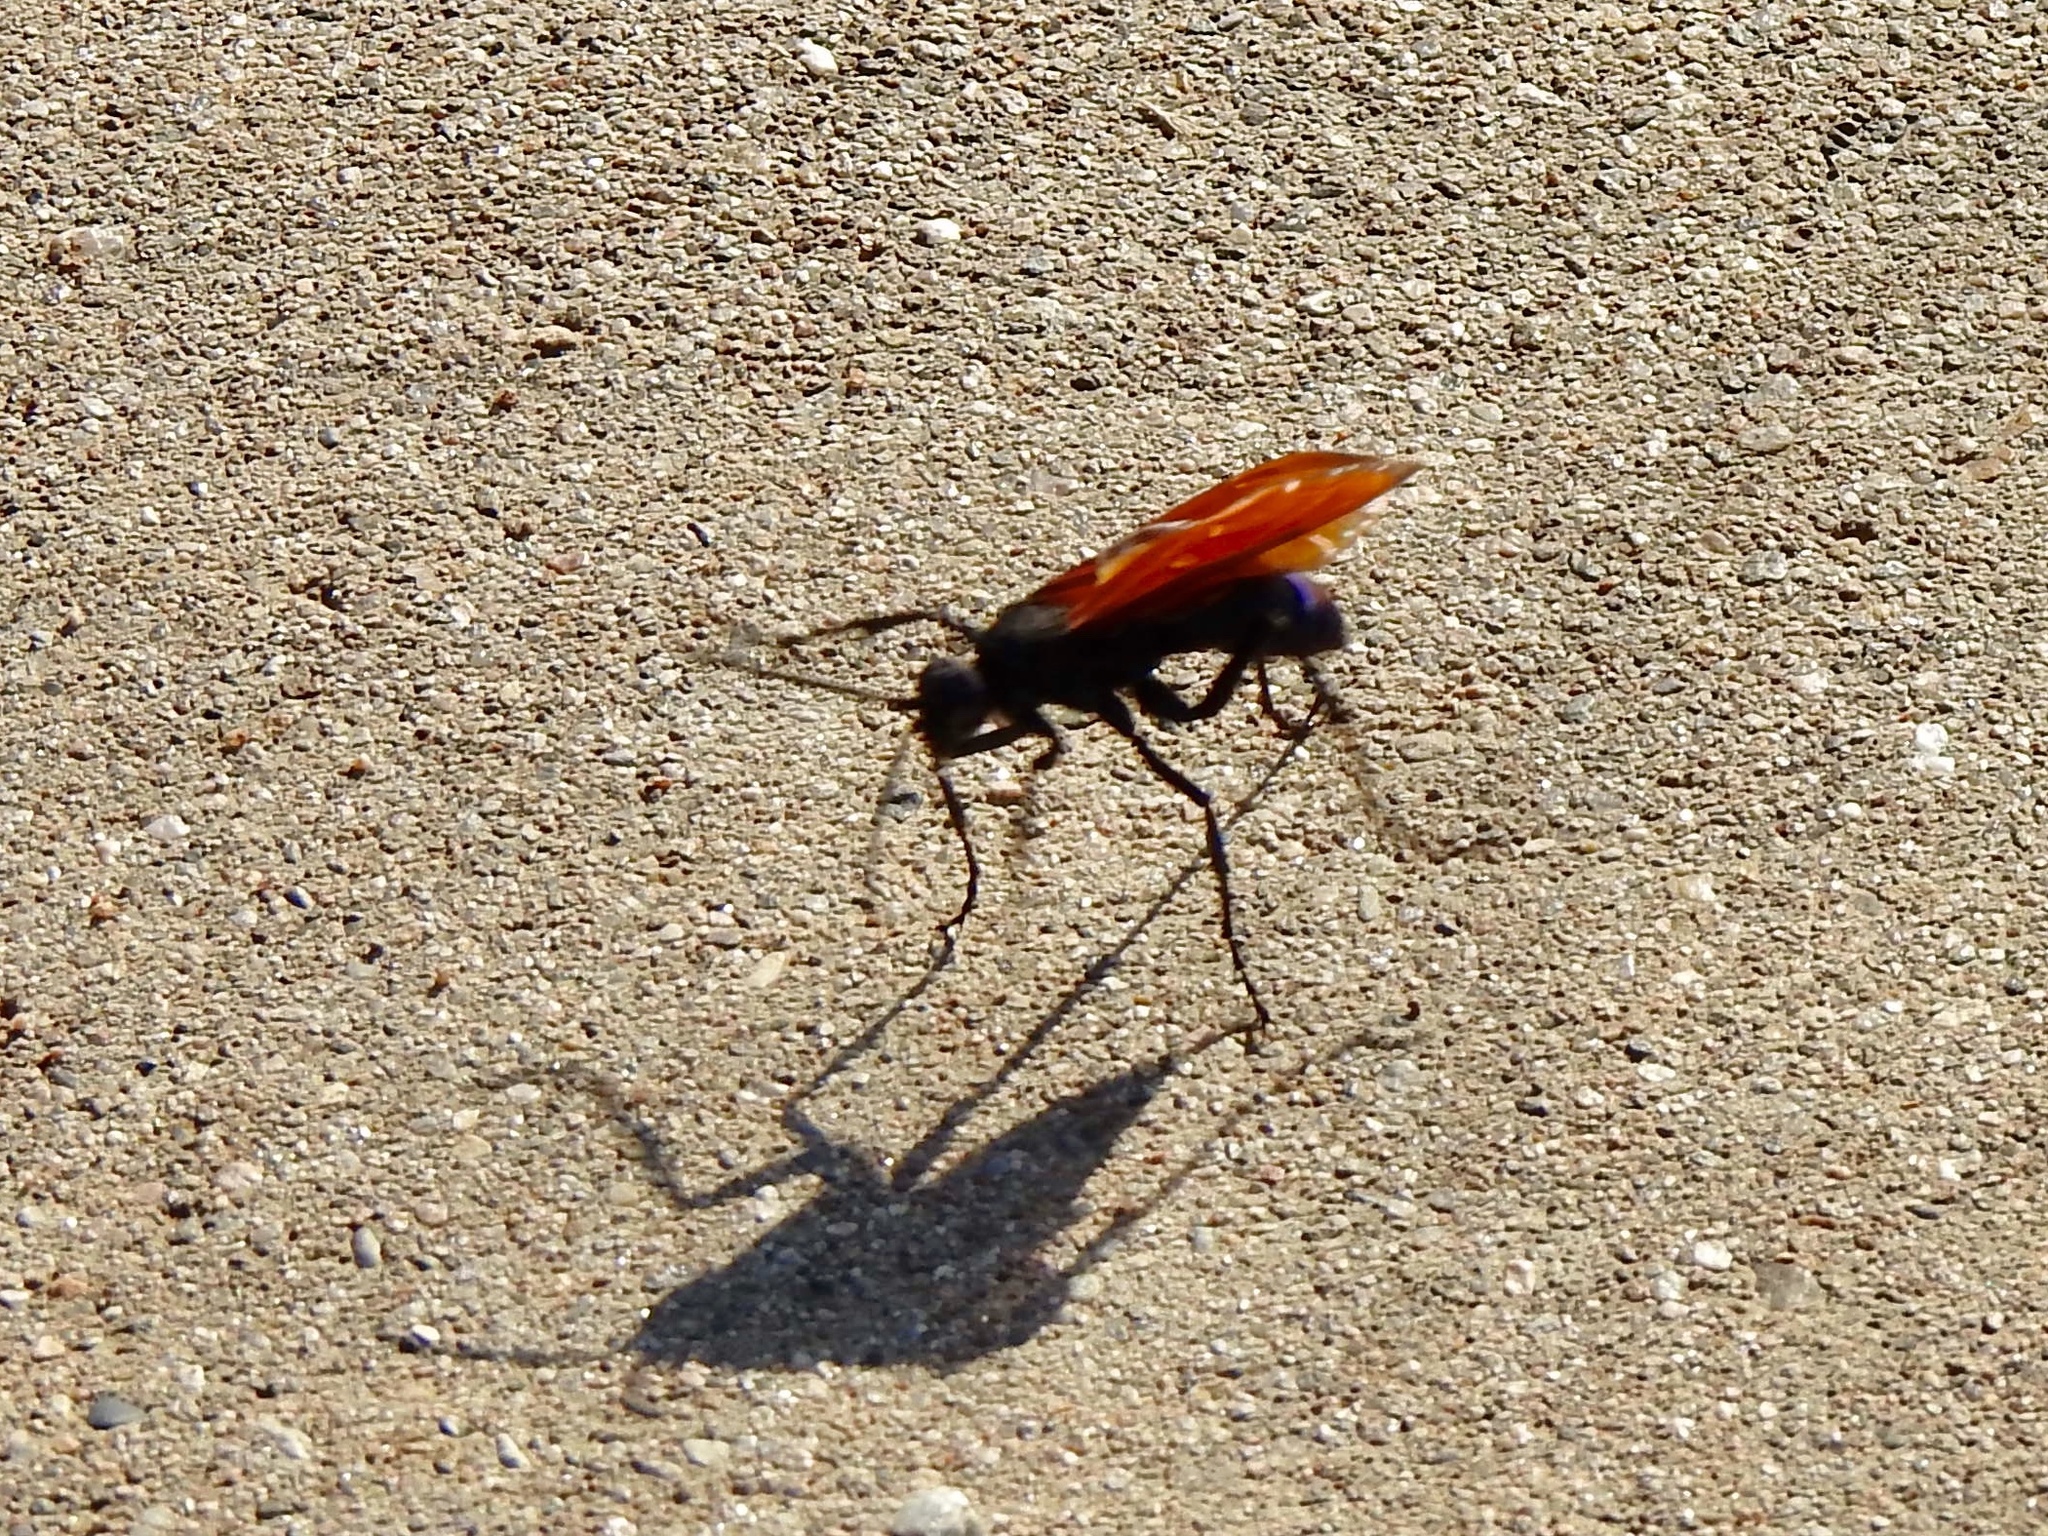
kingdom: Animalia
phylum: Arthropoda
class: Insecta
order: Hymenoptera
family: Pompilidae
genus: Pepsis
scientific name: Pepsis thisbe
